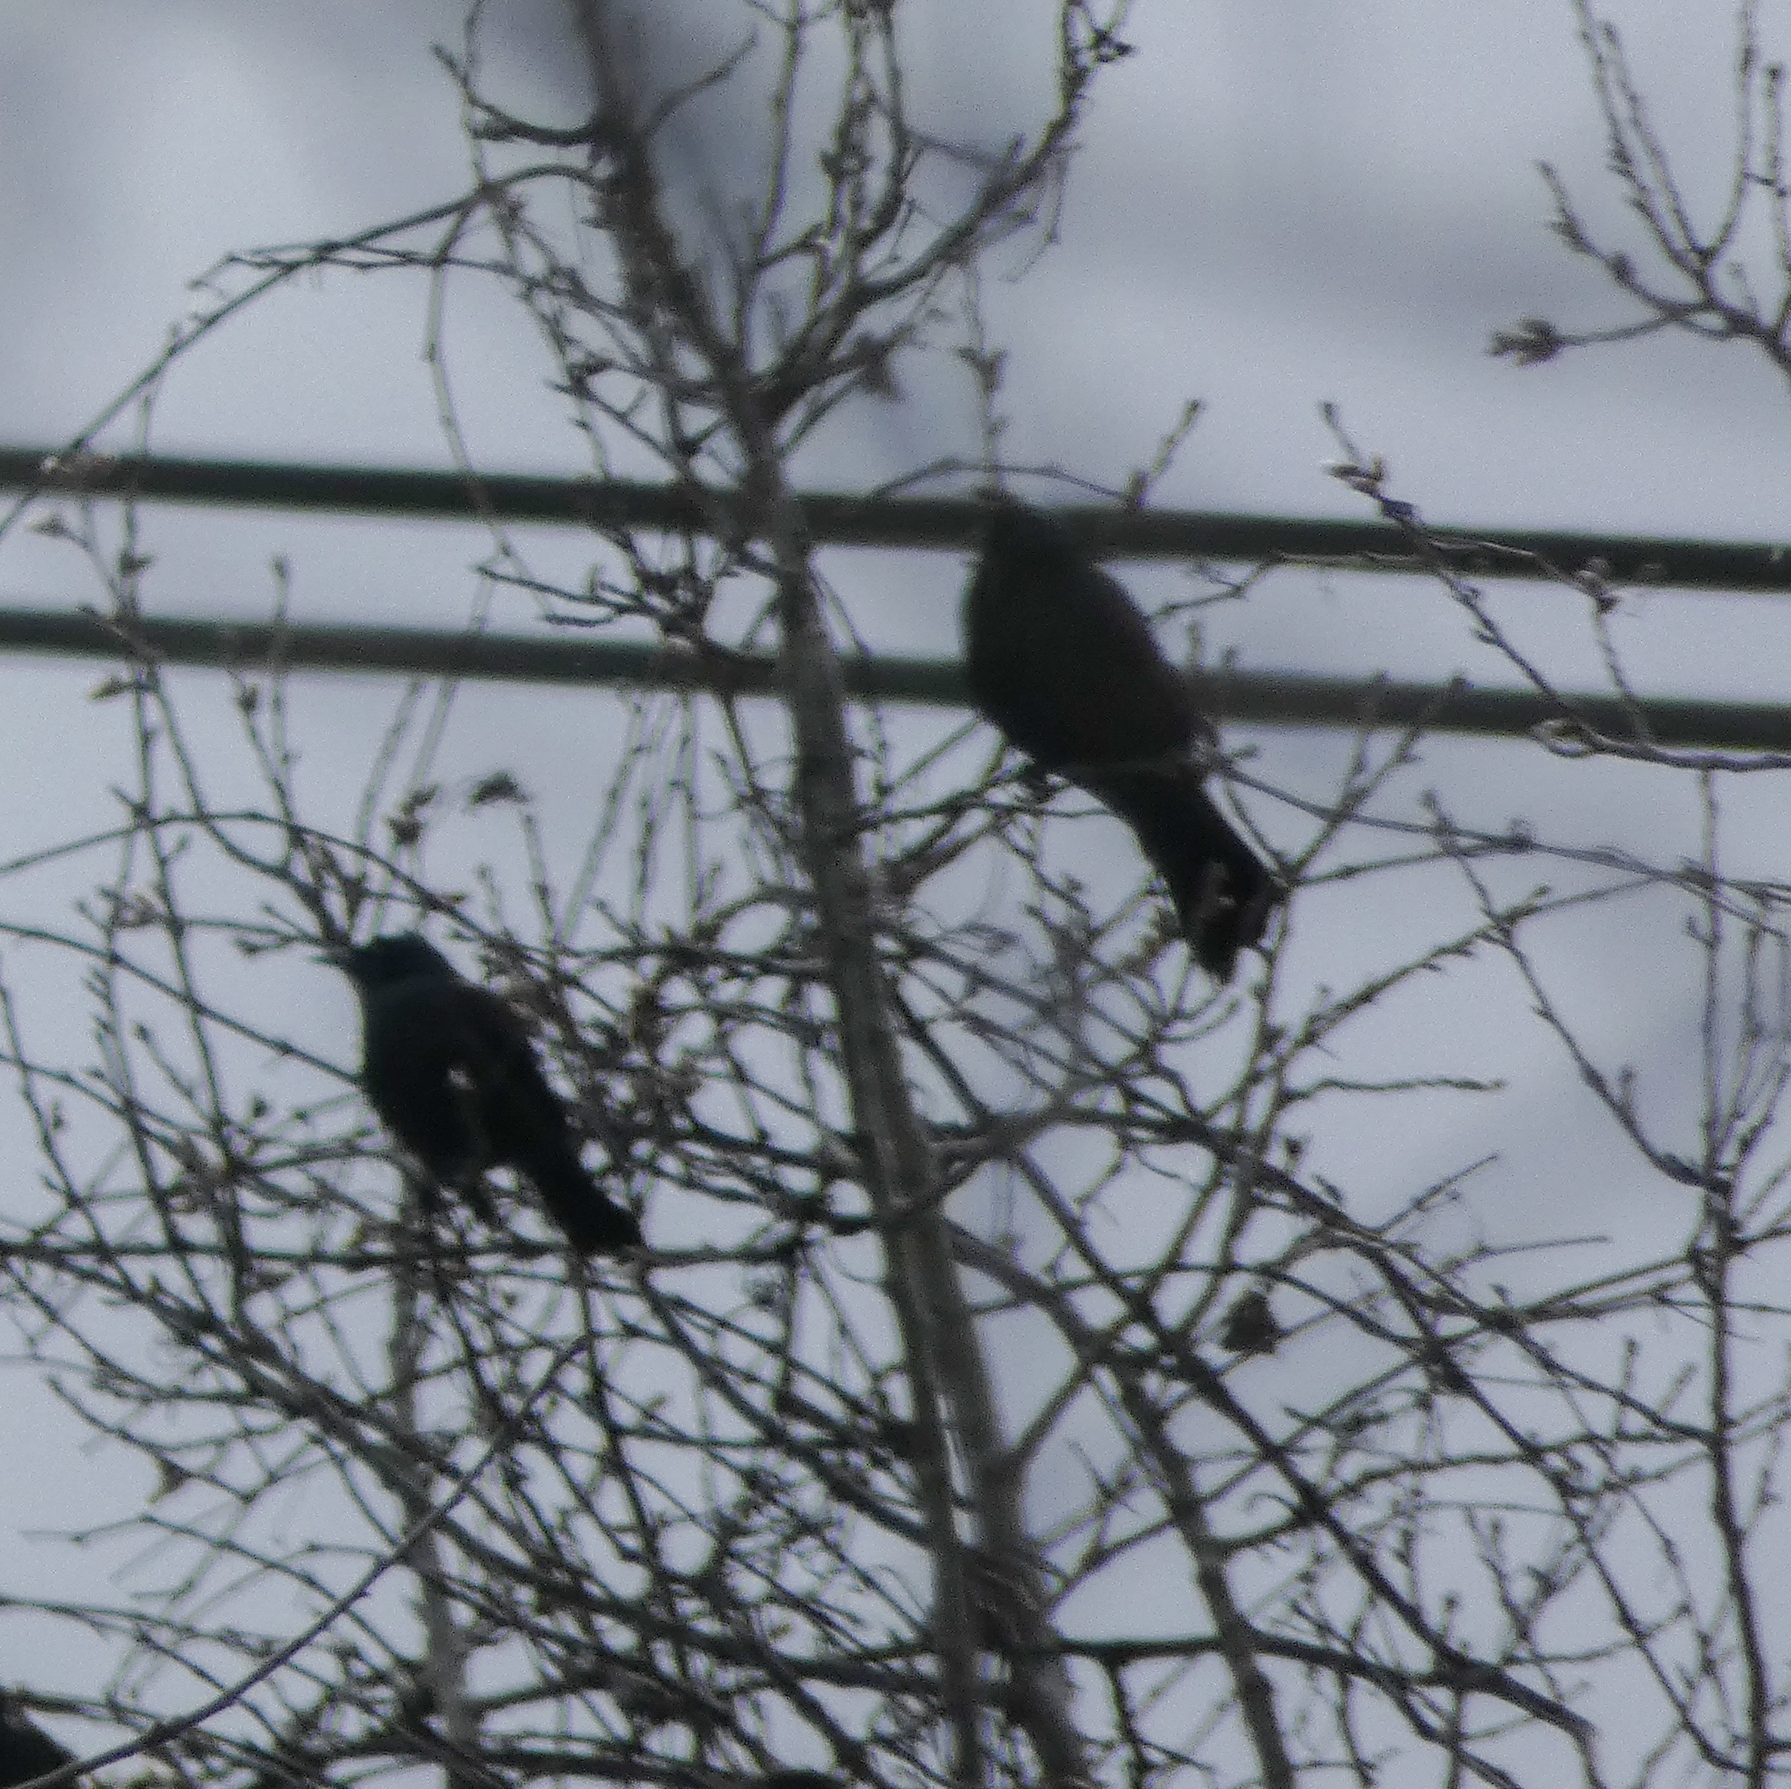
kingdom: Animalia
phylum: Chordata
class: Aves
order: Passeriformes
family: Icteridae
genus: Quiscalus
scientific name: Quiscalus quiscula
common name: Common grackle
